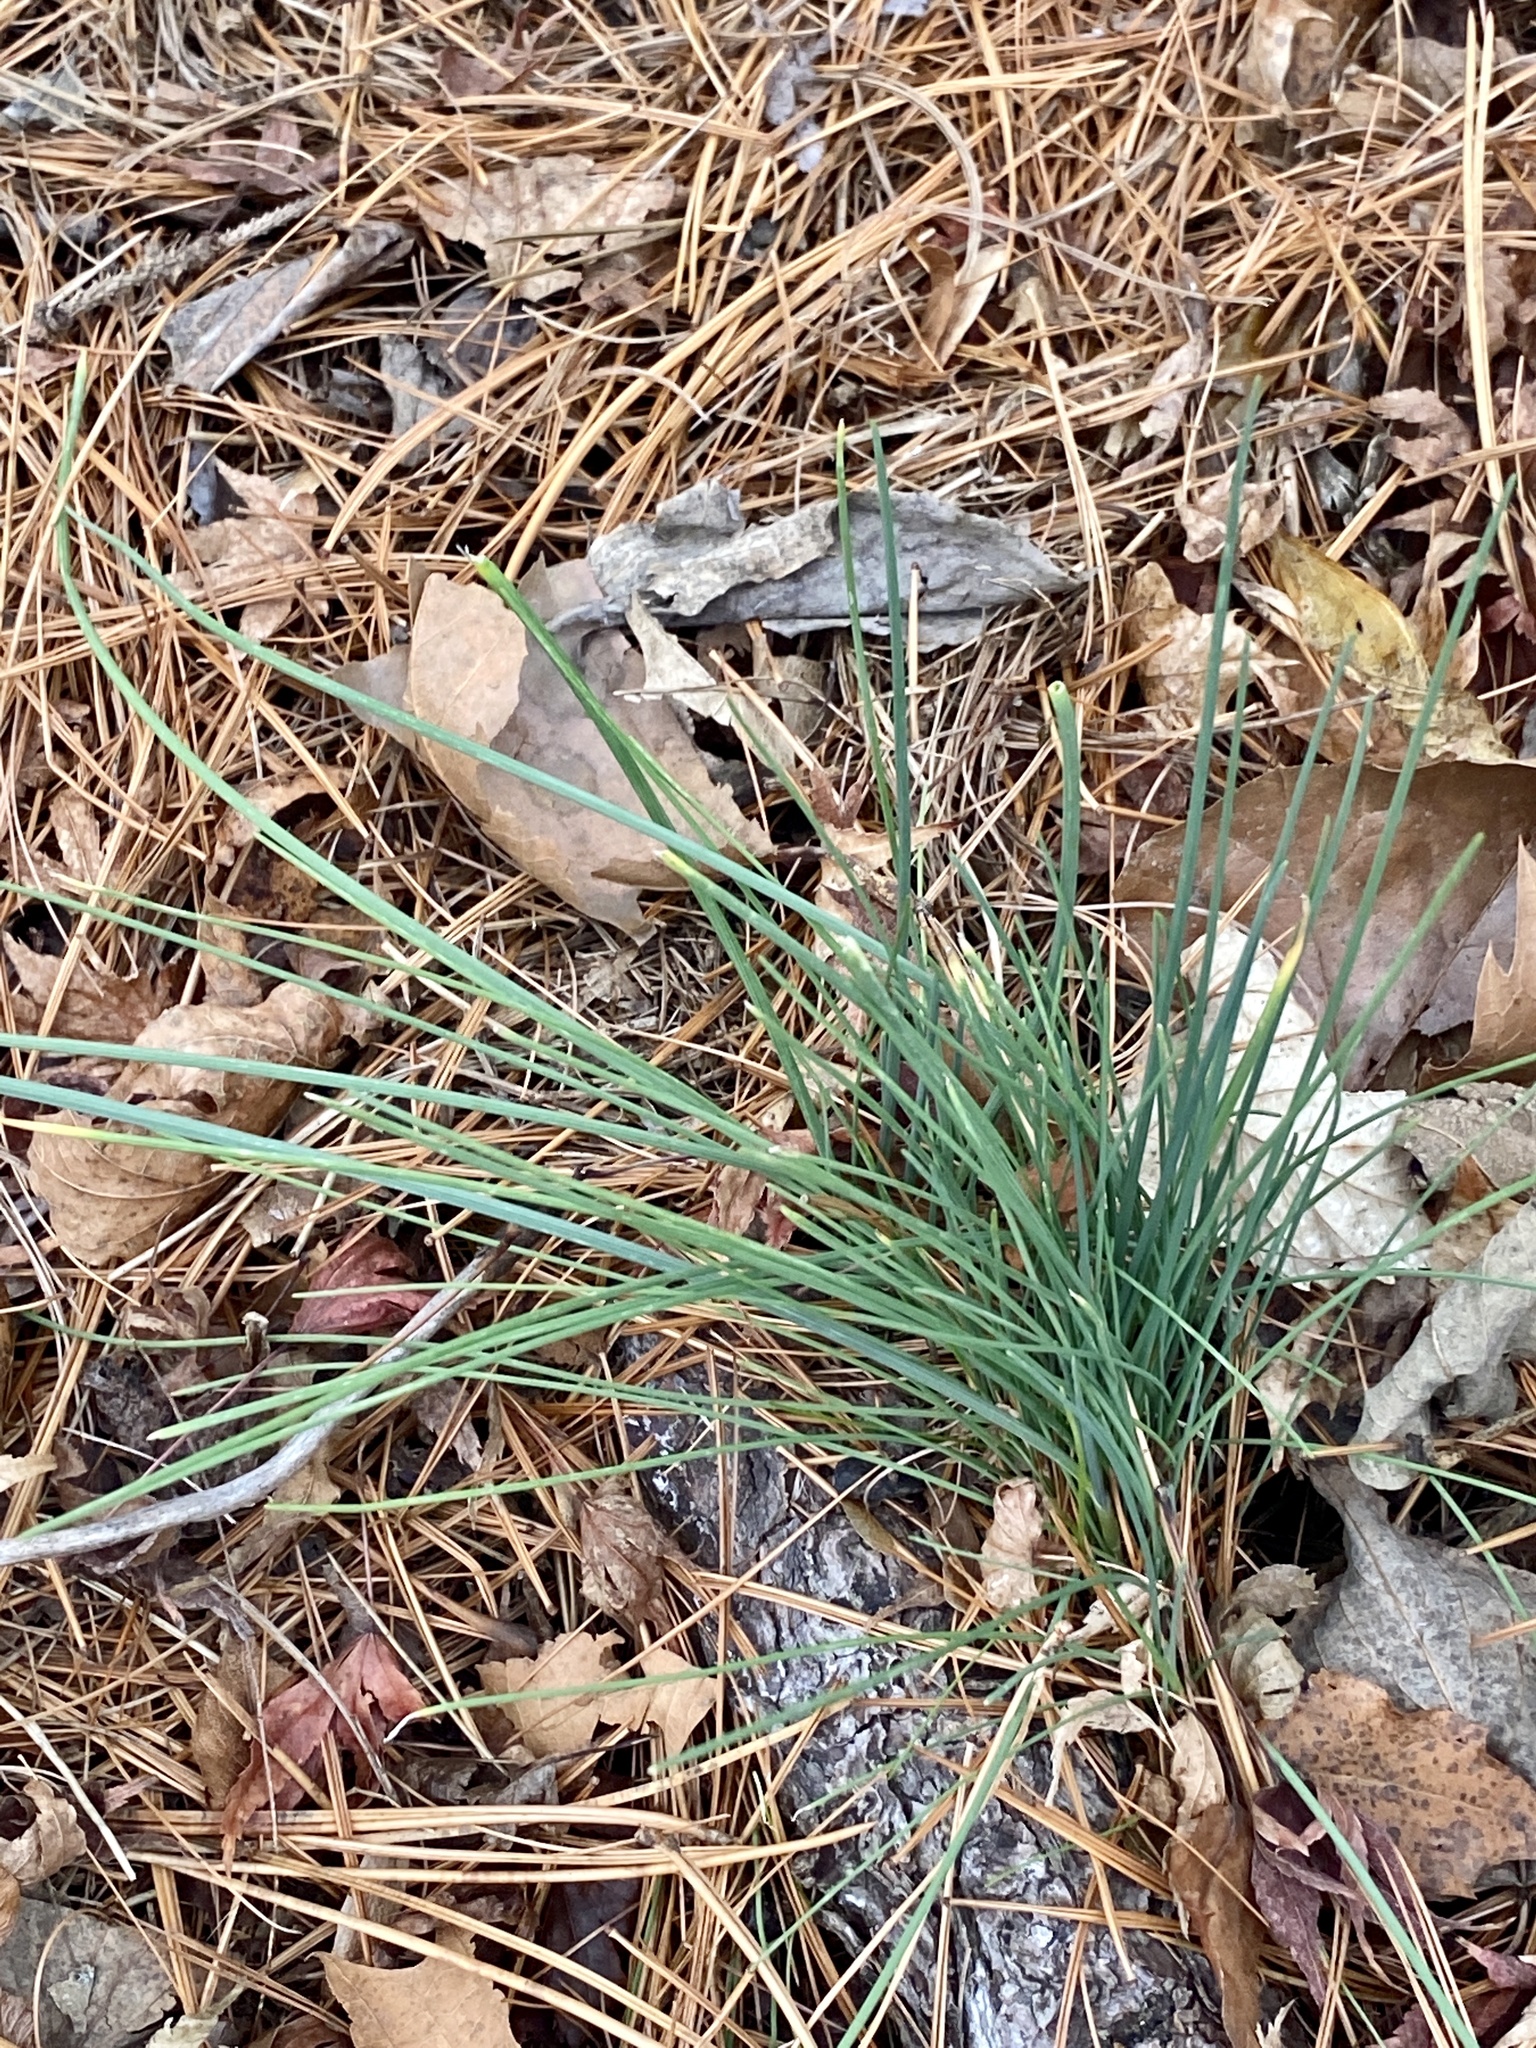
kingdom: Plantae
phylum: Tracheophyta
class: Liliopsida
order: Asparagales
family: Amaryllidaceae
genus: Allium
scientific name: Allium vineale
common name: Crow garlic
